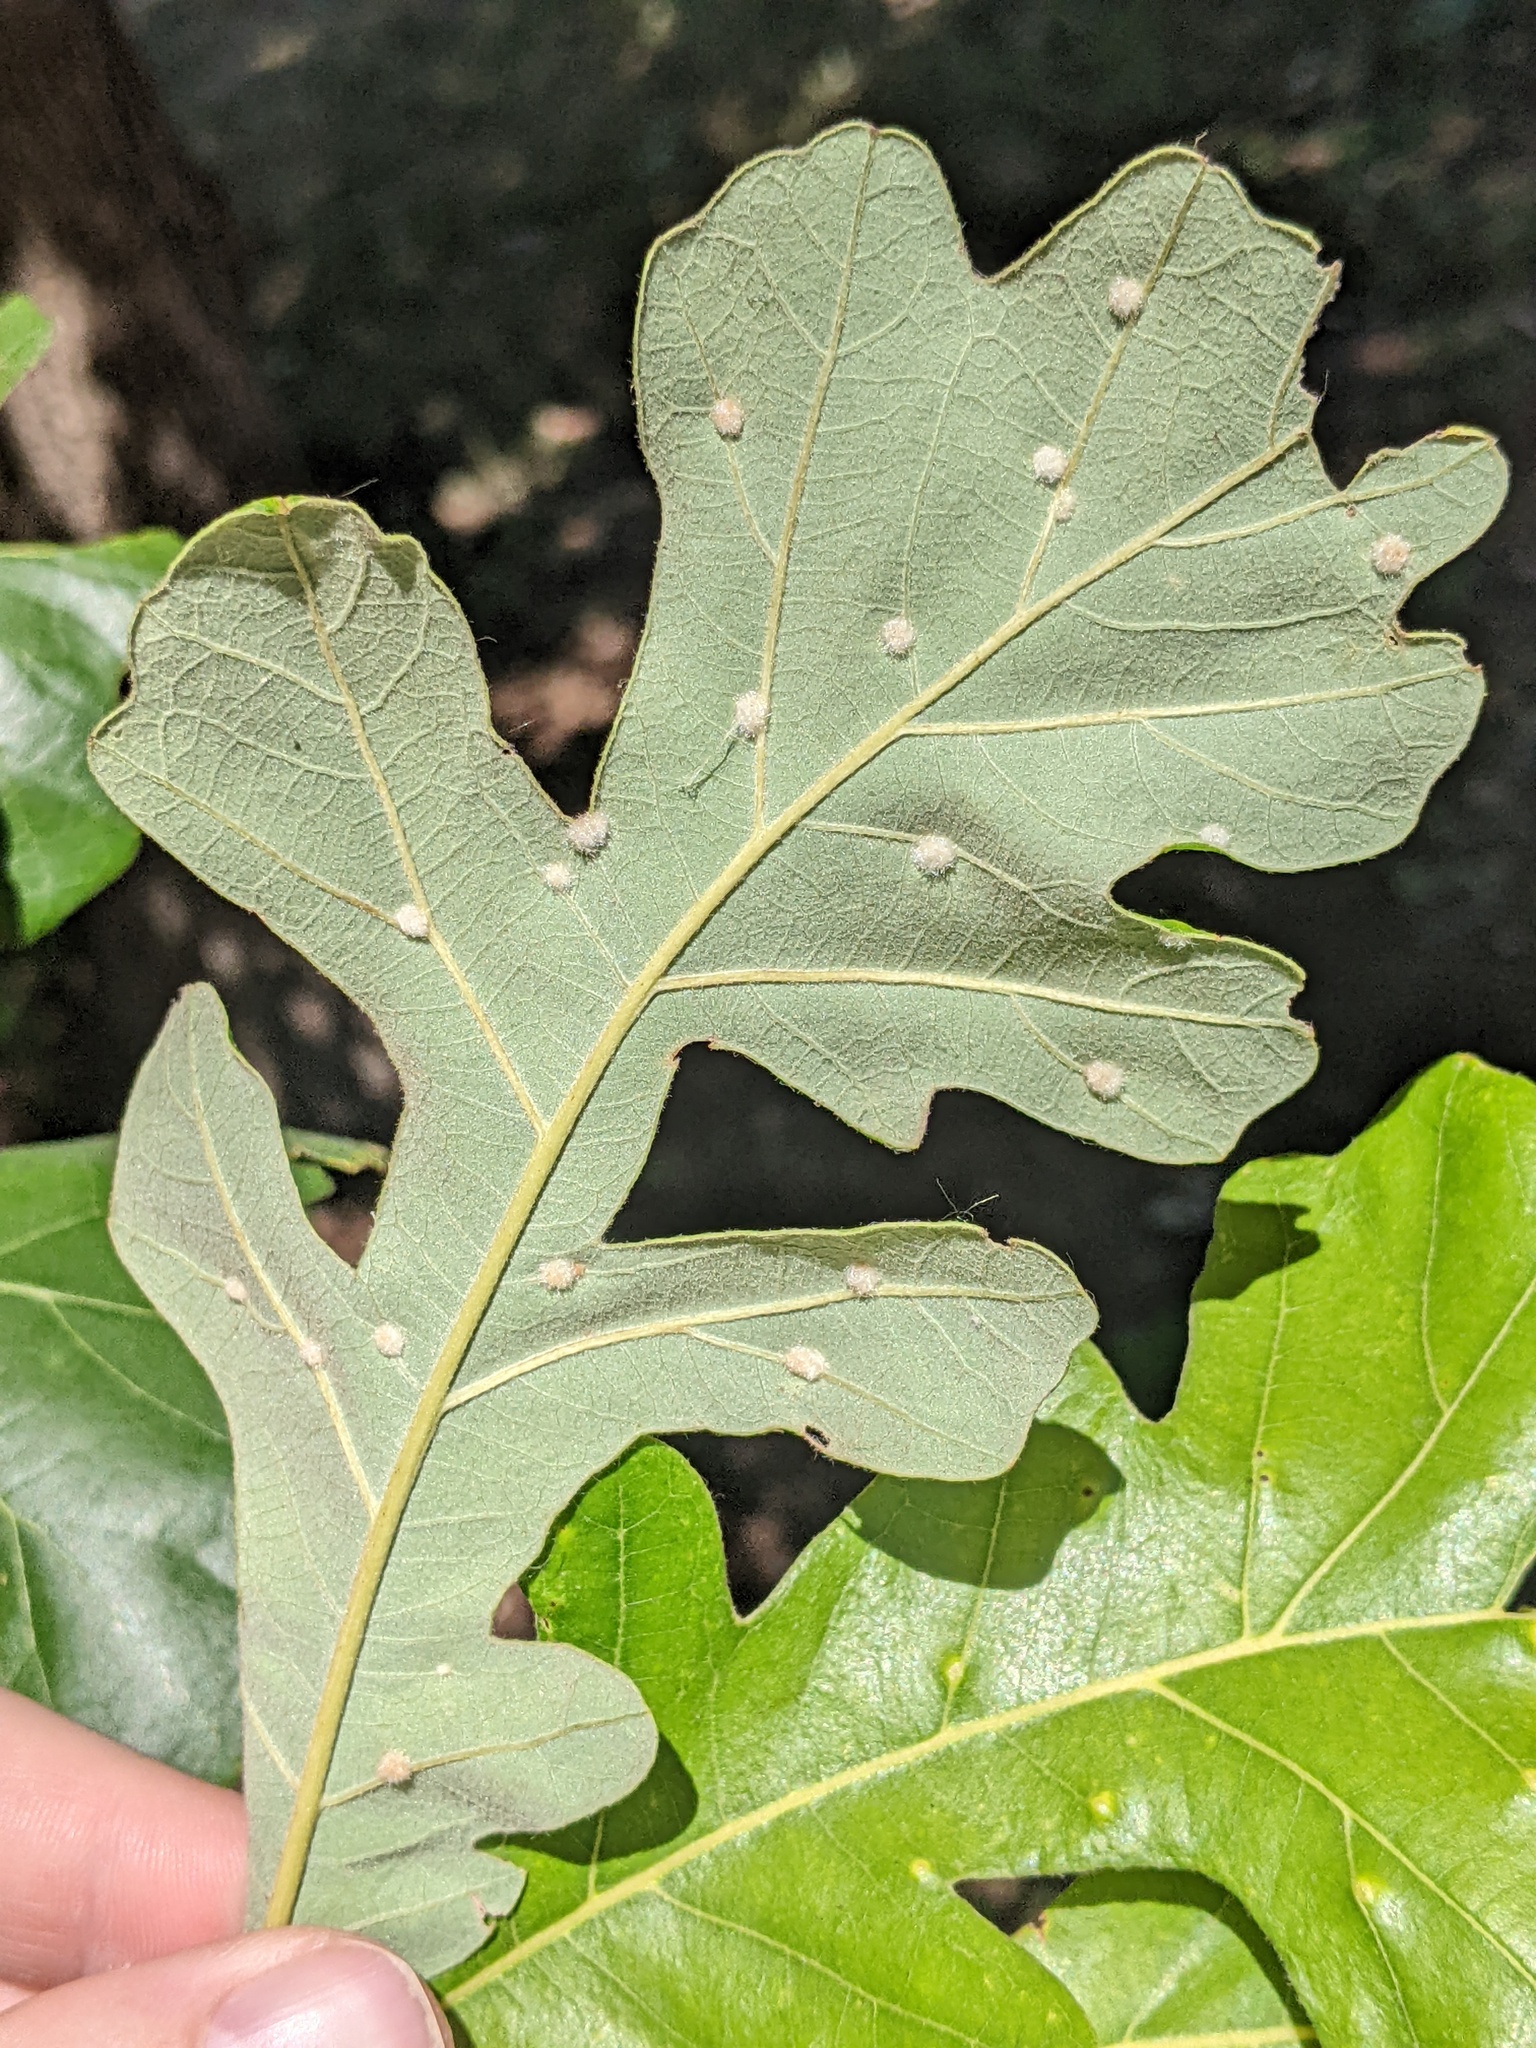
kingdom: Animalia
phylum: Arthropoda
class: Insecta
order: Hymenoptera
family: Cynipidae
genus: Neuroterus
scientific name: Neuroterus quercusverrucarum
